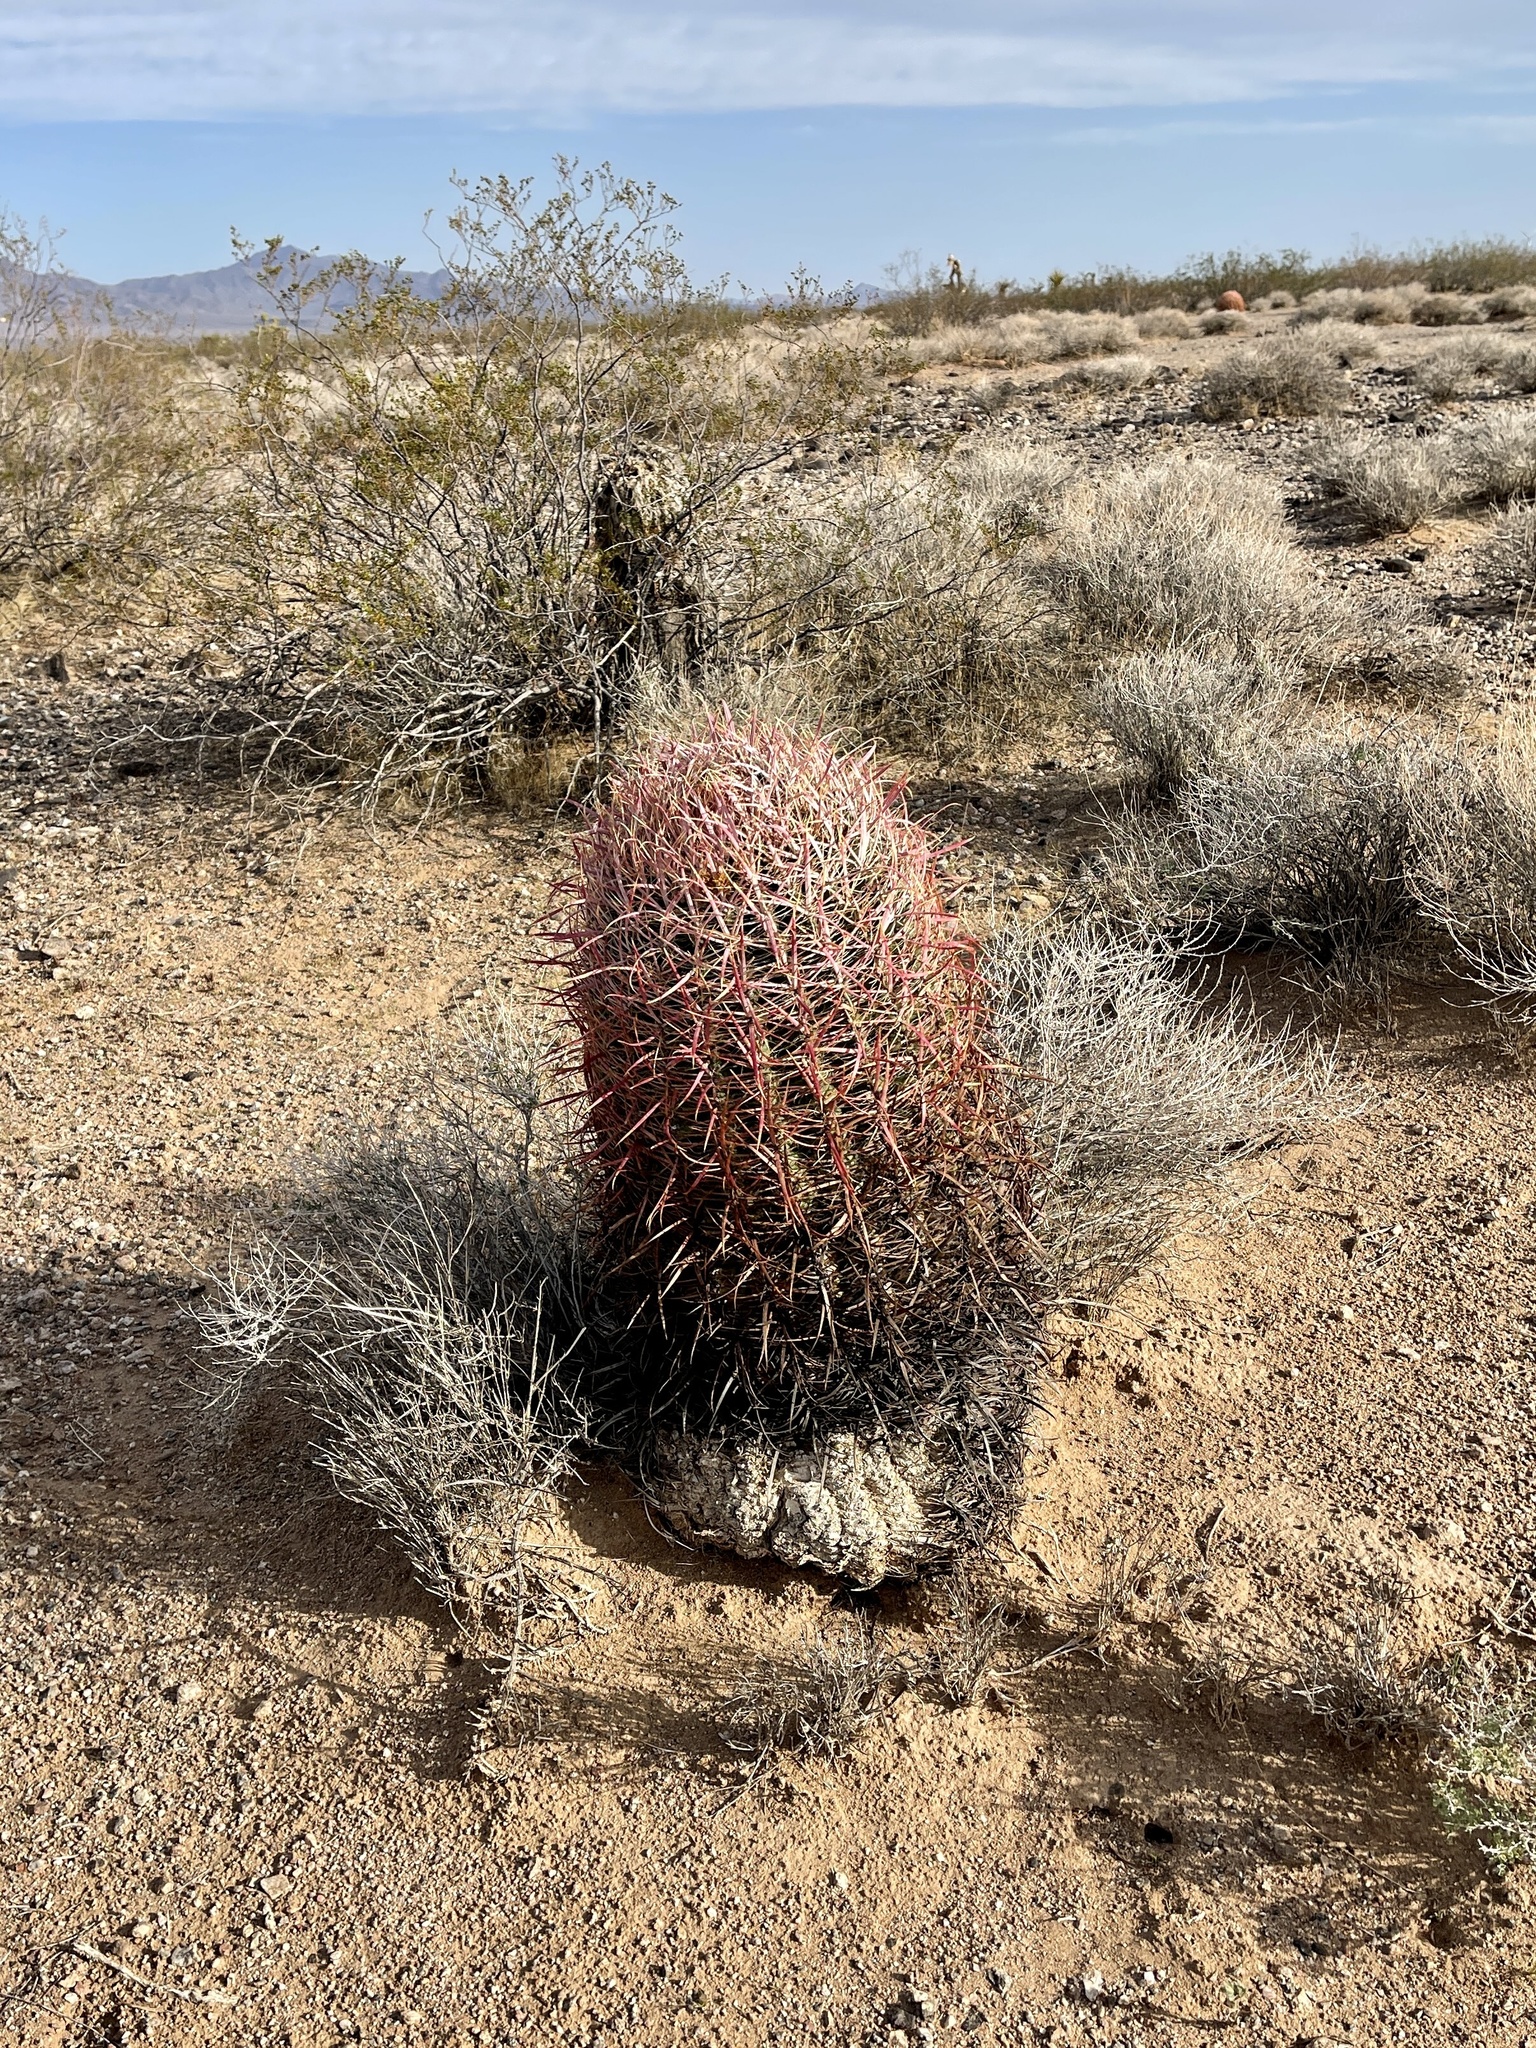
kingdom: Plantae
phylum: Tracheophyta
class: Magnoliopsida
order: Caryophyllales
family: Cactaceae
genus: Ferocactus
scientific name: Ferocactus cylindraceus
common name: California barrel cactus
